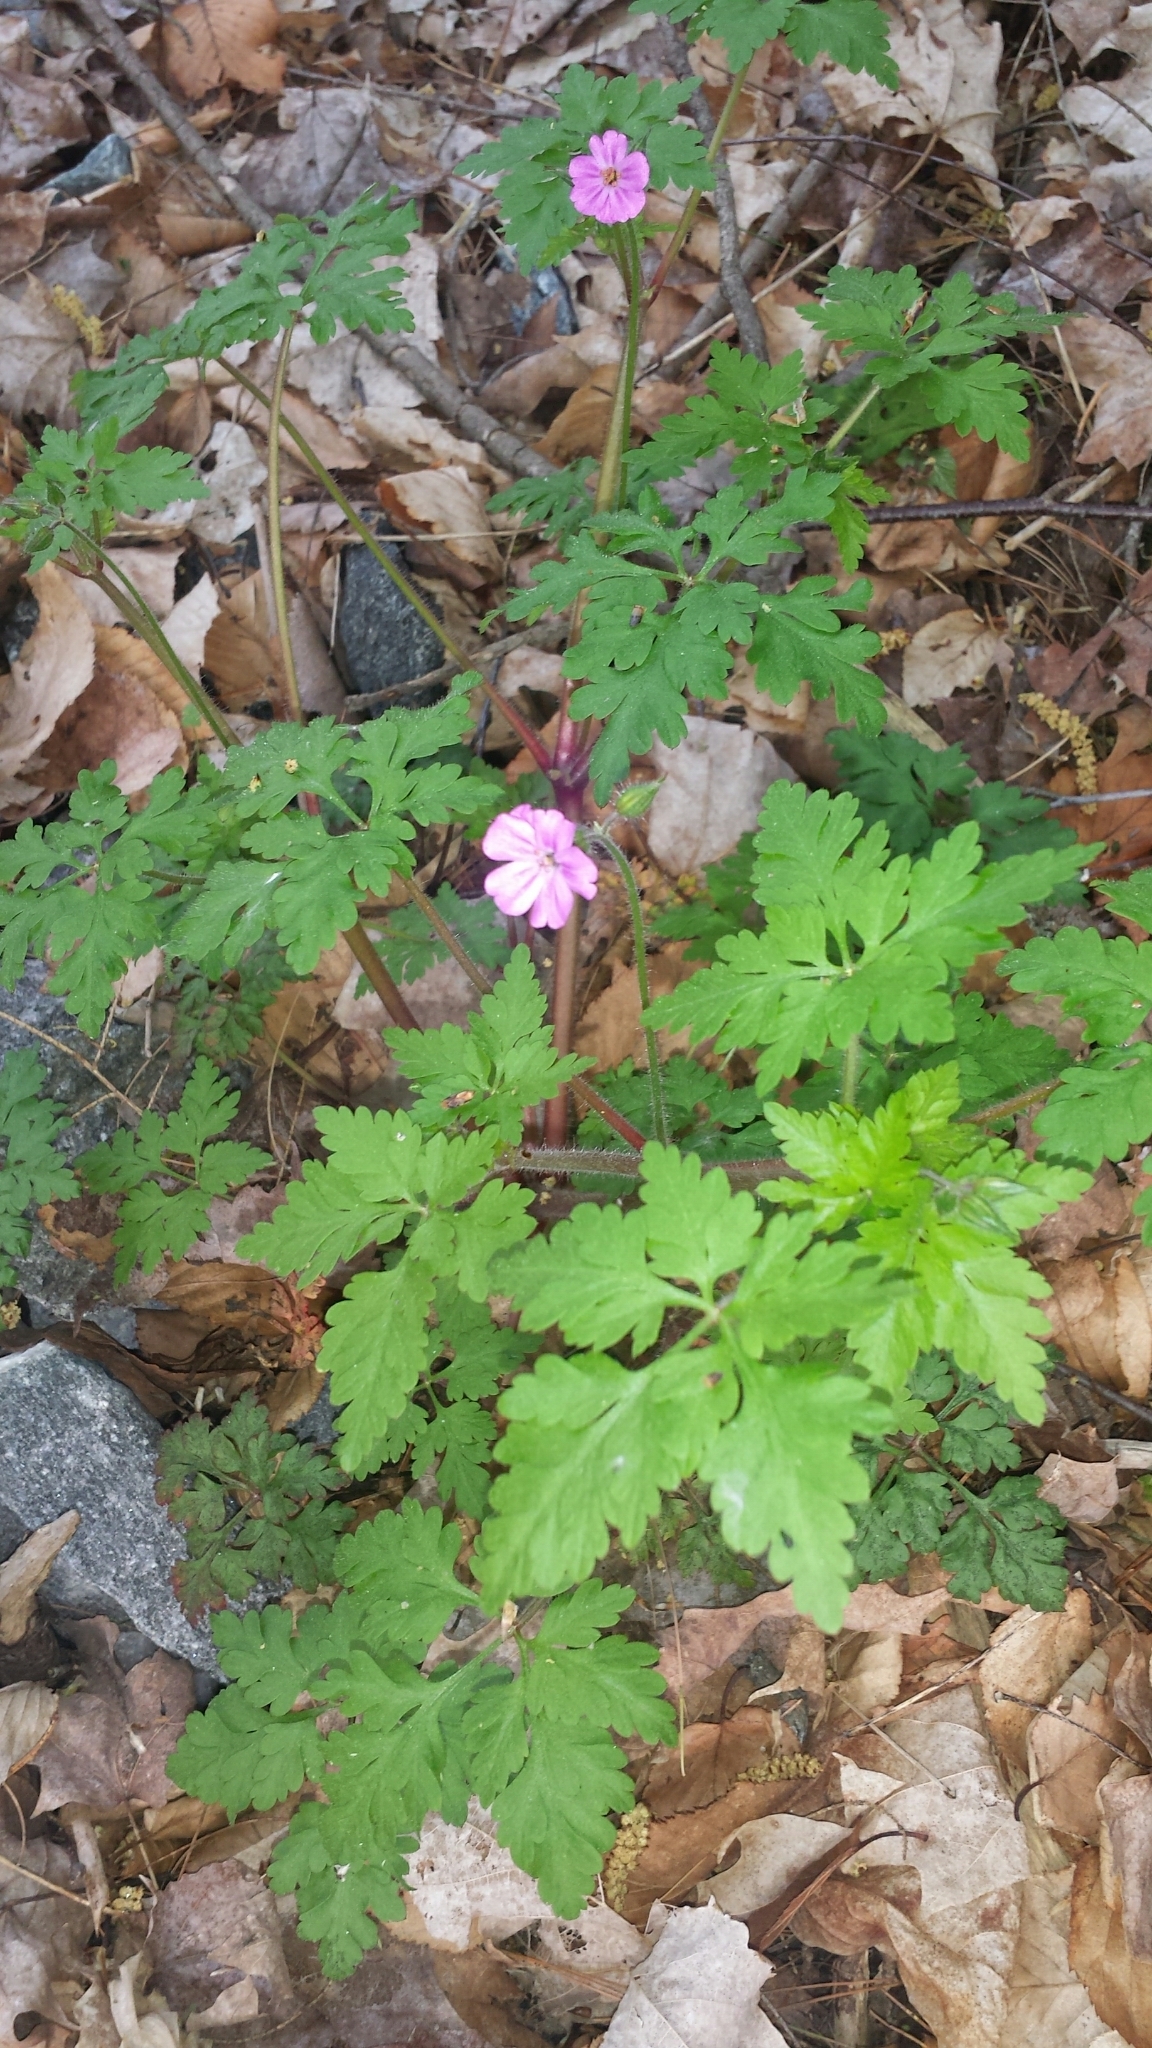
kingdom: Plantae
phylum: Tracheophyta
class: Magnoliopsida
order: Geraniales
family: Geraniaceae
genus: Geranium
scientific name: Geranium robertianum
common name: Herb-robert
